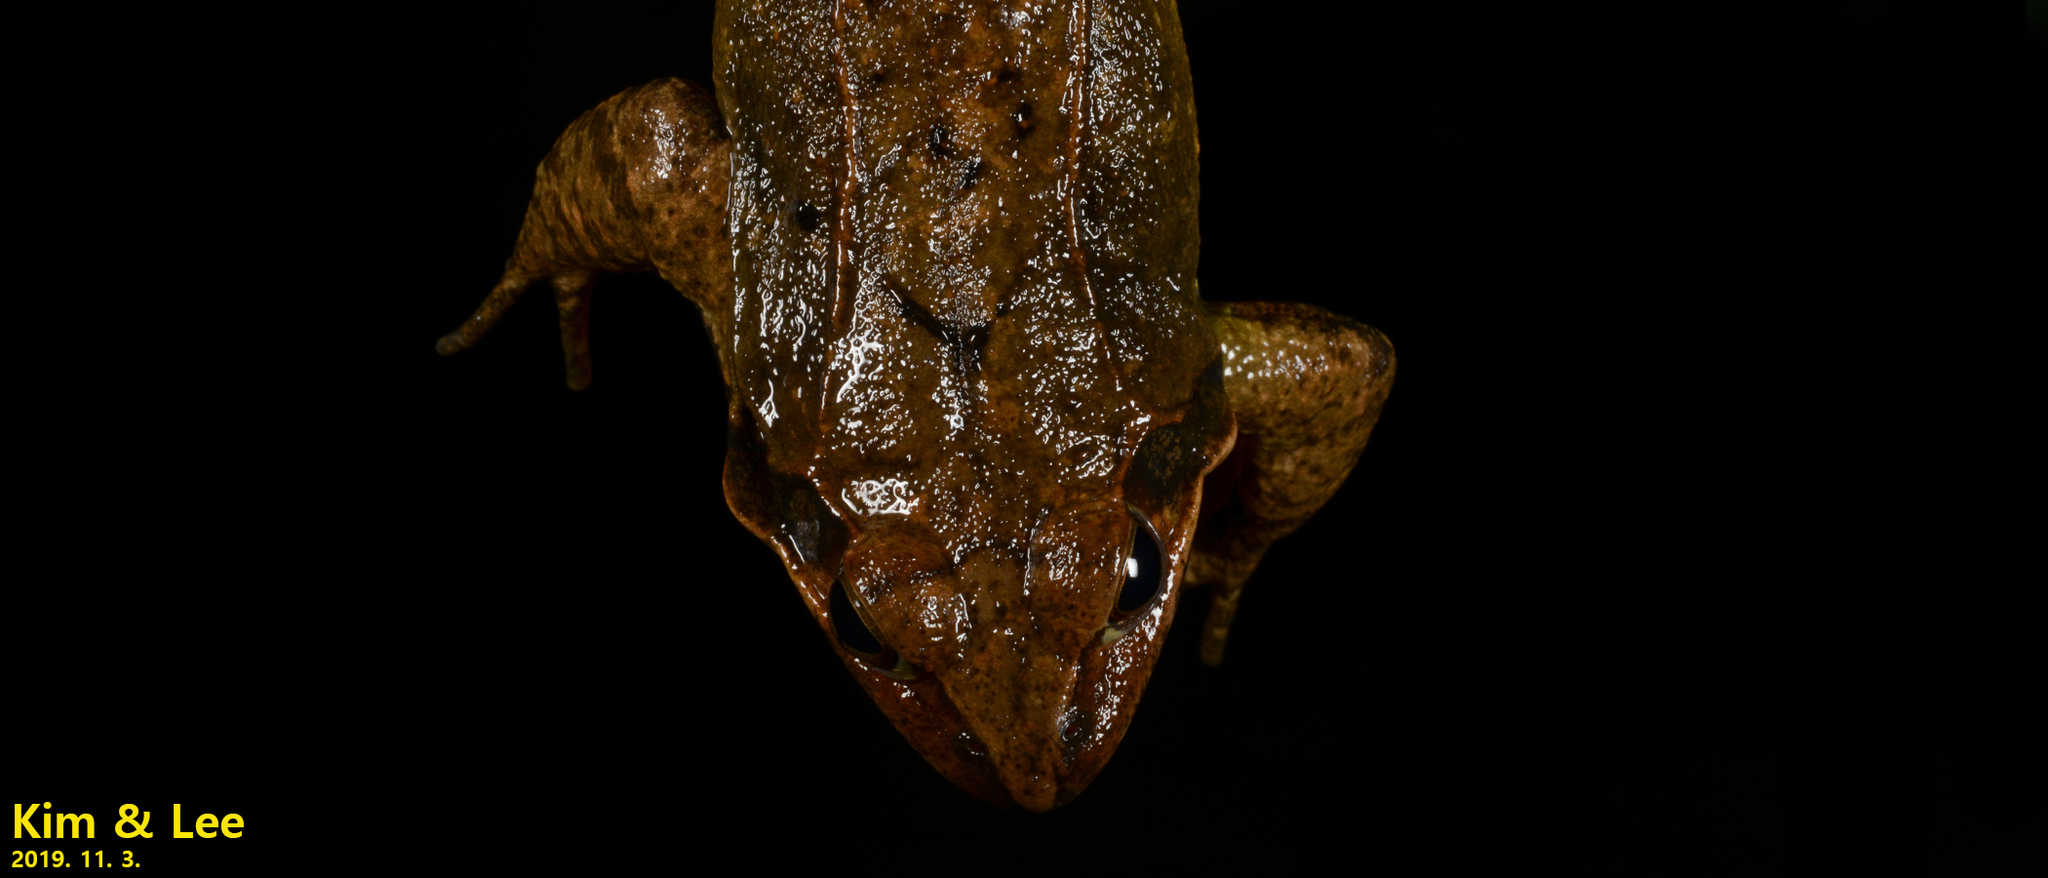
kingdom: Animalia
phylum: Chordata
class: Amphibia
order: Anura
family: Ranidae
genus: Rana
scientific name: Rana uenoi
